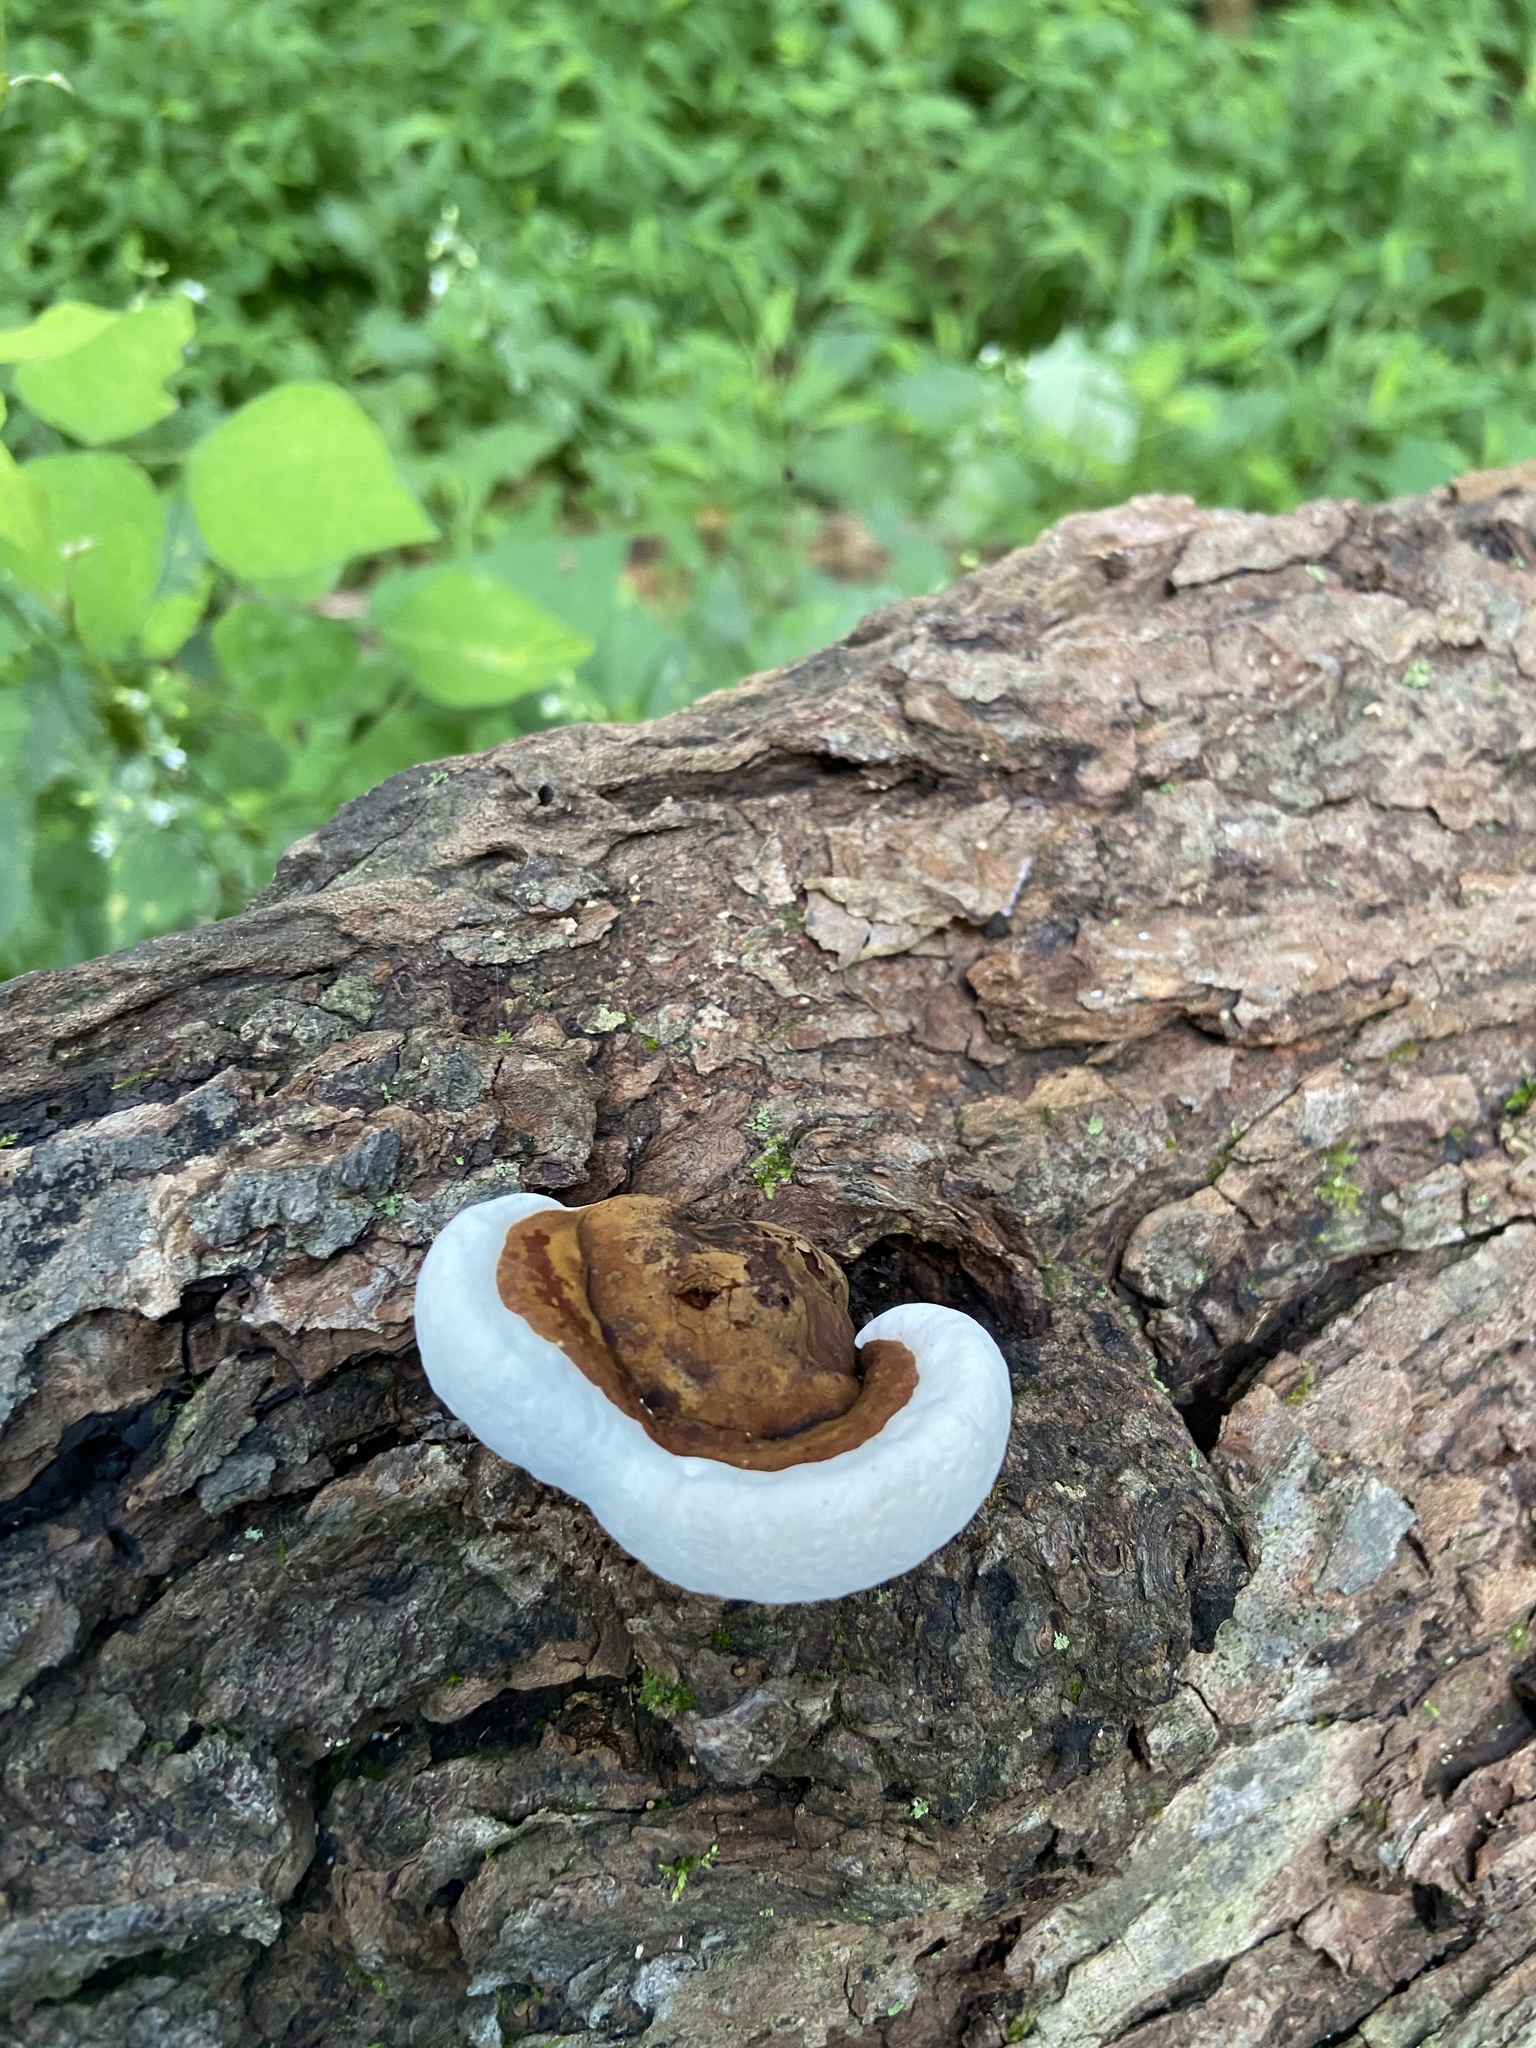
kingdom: Fungi
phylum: Basidiomycota
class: Agaricomycetes
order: Polyporales
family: Polyporaceae
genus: Ganoderma
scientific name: Ganoderma applanatum
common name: Artist's bracket
